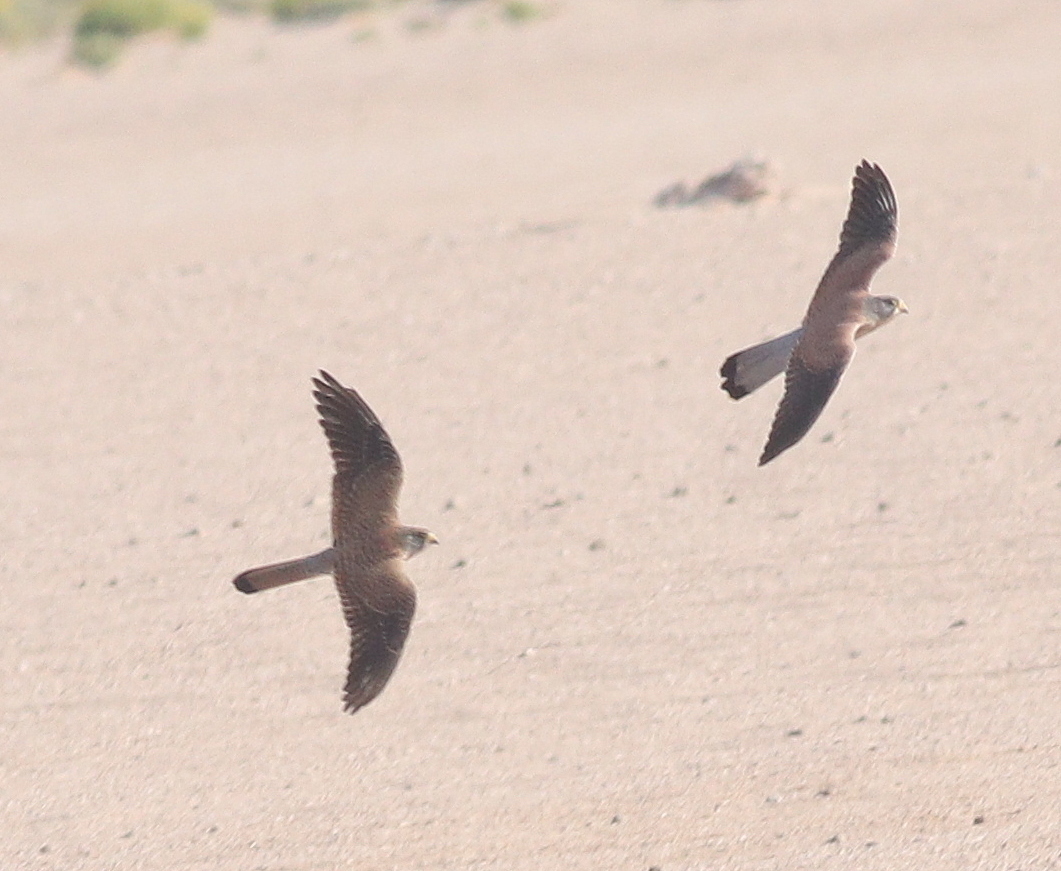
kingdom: Animalia
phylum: Chordata
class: Aves
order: Falconiformes
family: Falconidae
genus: Falco
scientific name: Falco tinnunculus
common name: Common kestrel
